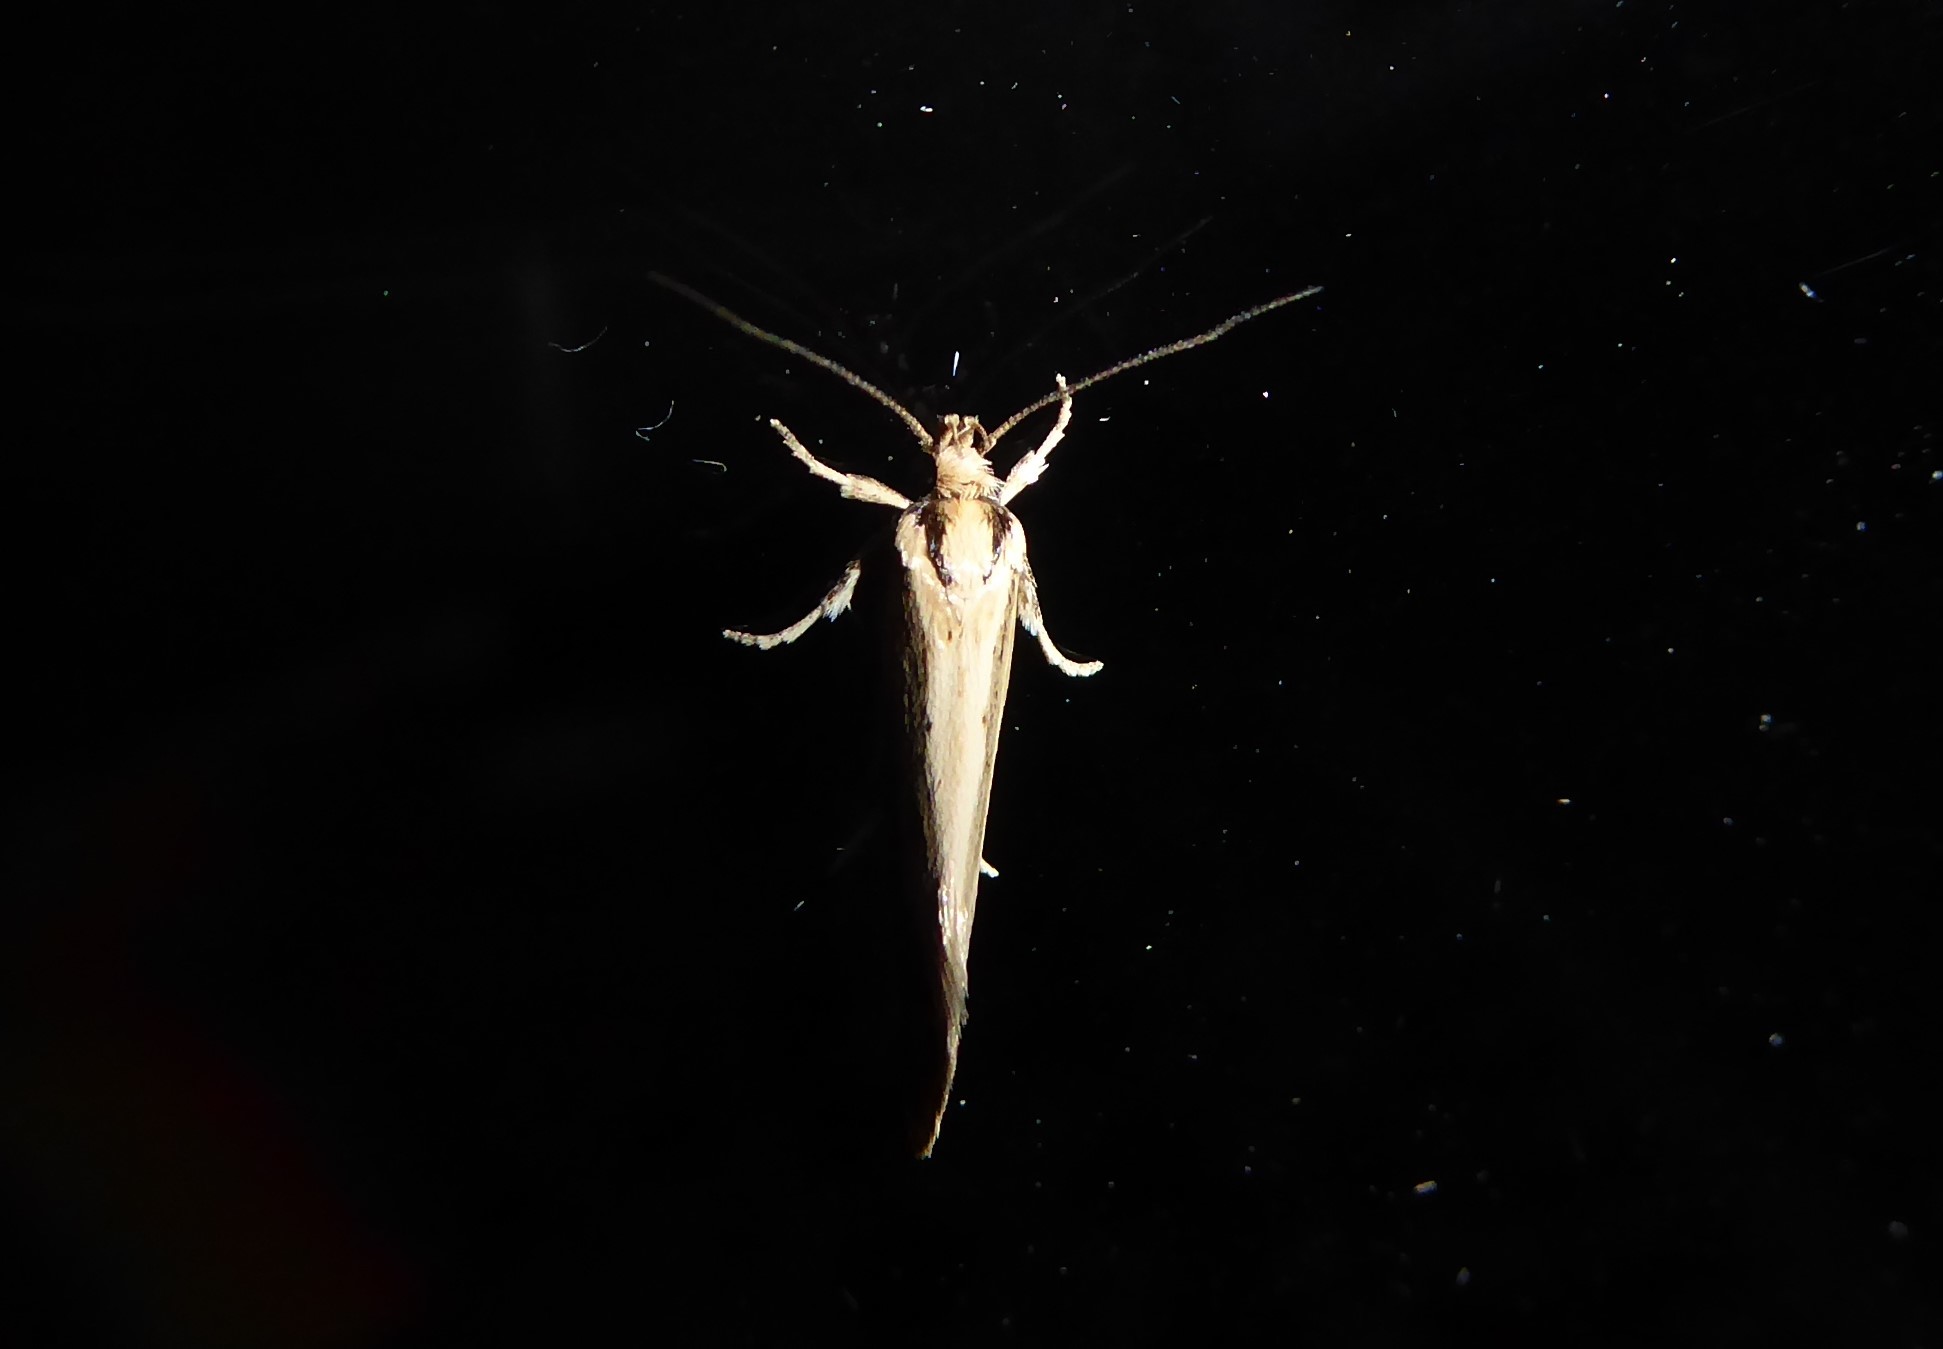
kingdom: Animalia
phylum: Arthropoda
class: Insecta
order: Lepidoptera
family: Oecophoridae
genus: Tingena
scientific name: Tingena chloradelpha
